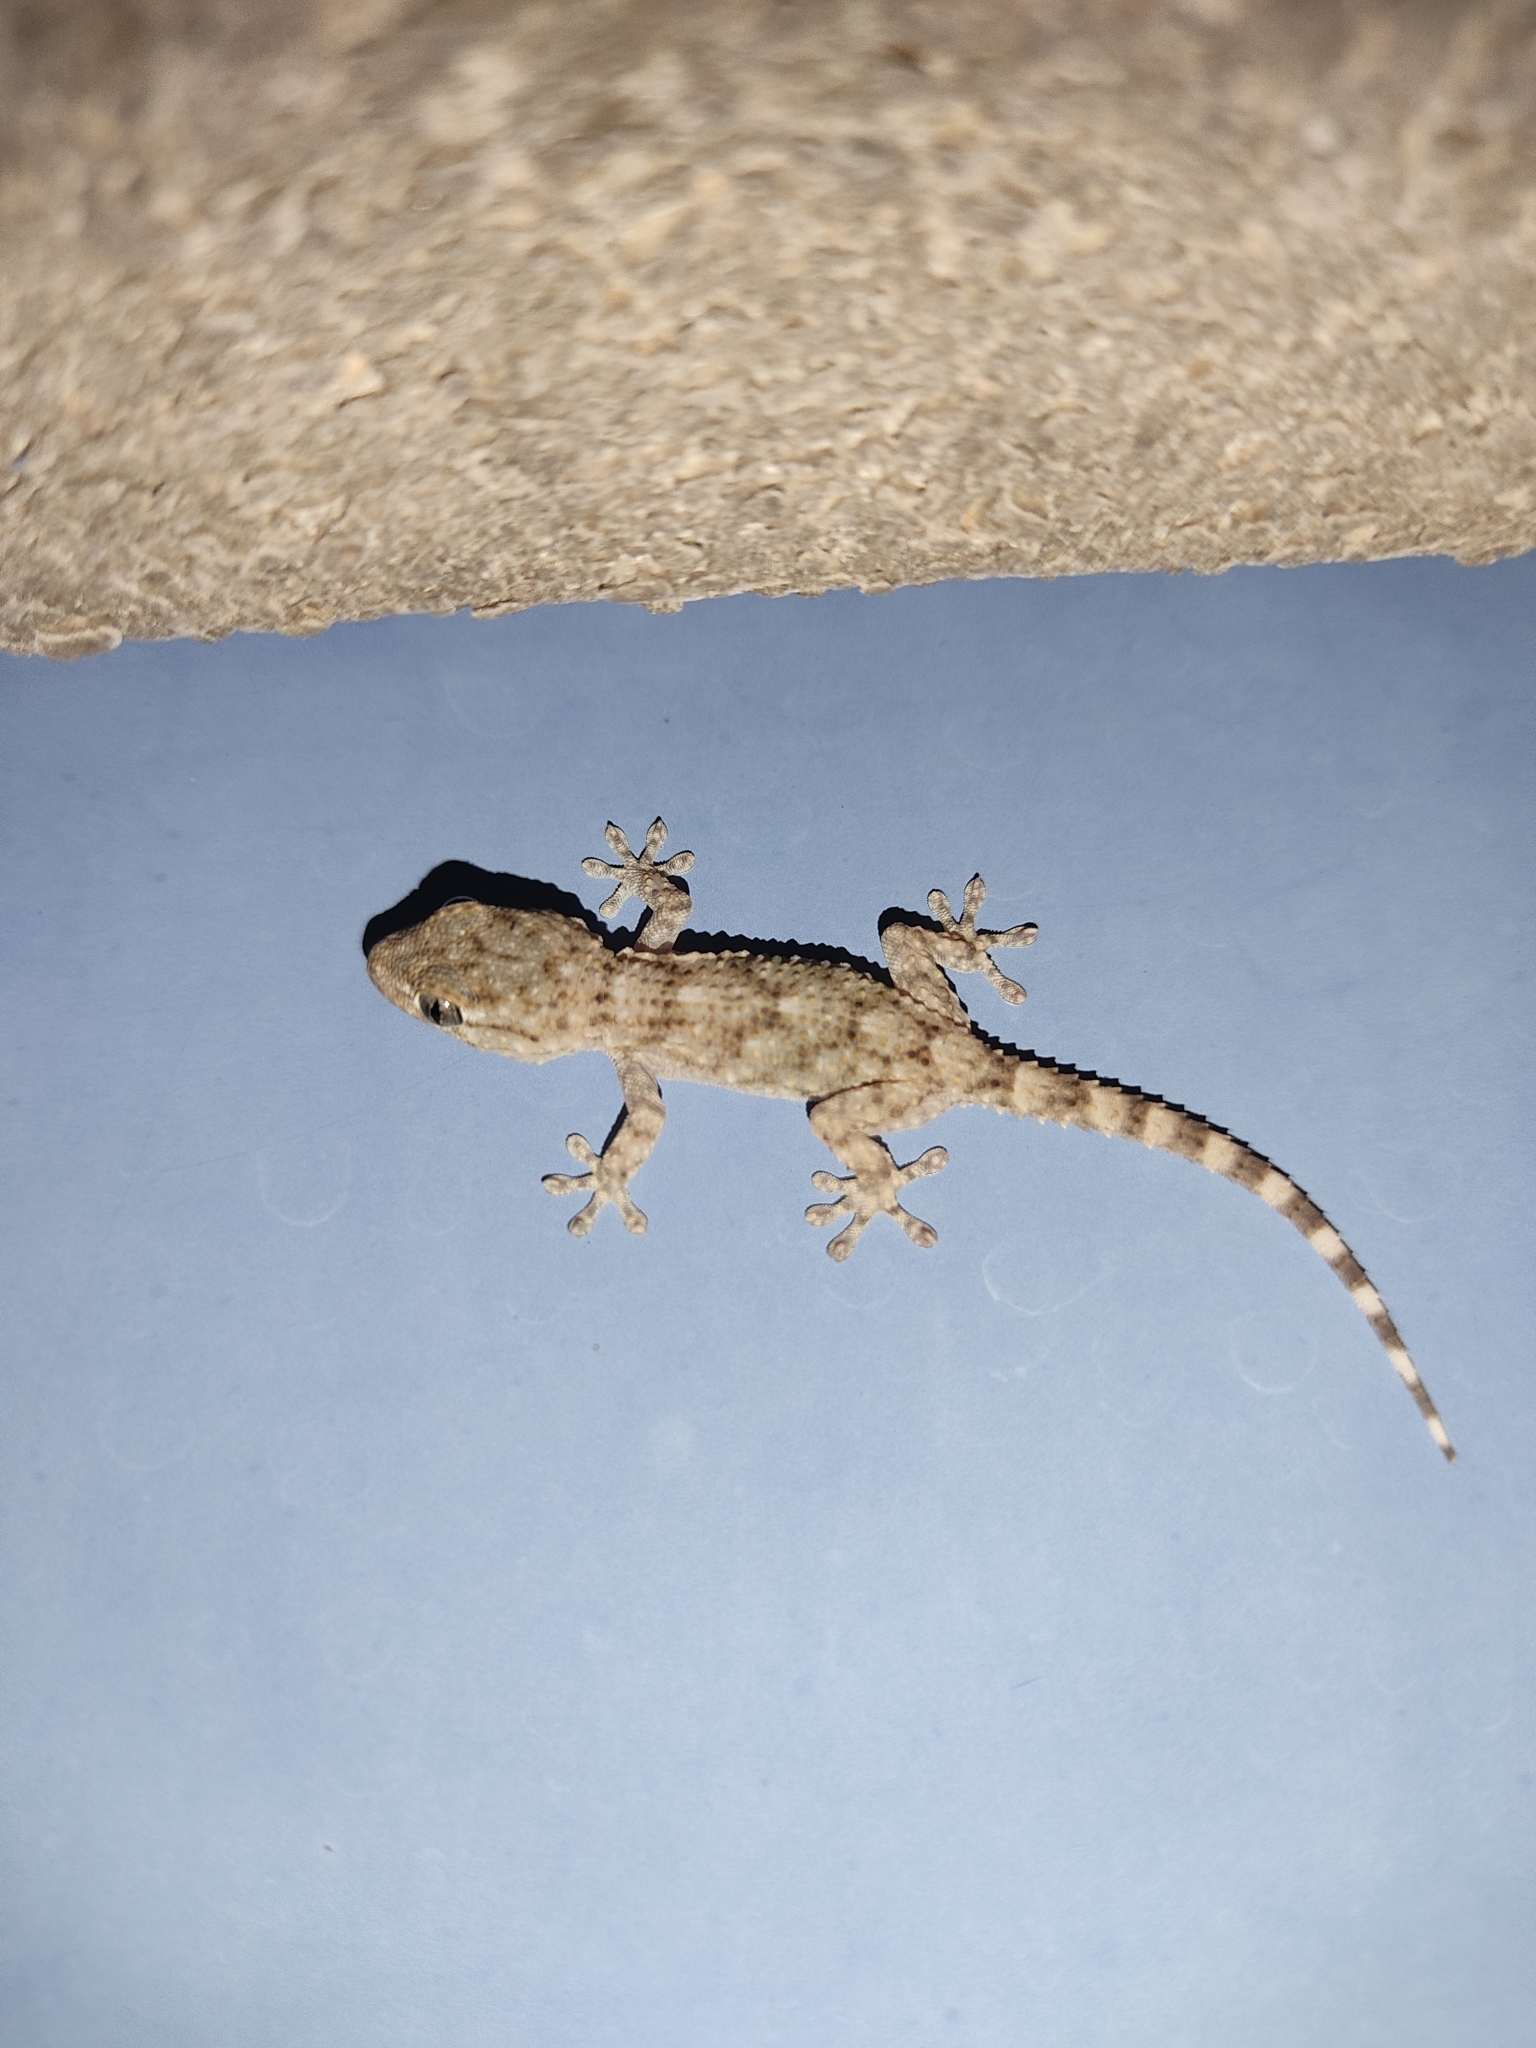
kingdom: Animalia
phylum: Chordata
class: Squamata
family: Phyllodactylidae
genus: Tarentola
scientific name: Tarentola mauritanica
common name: Moorish gecko
